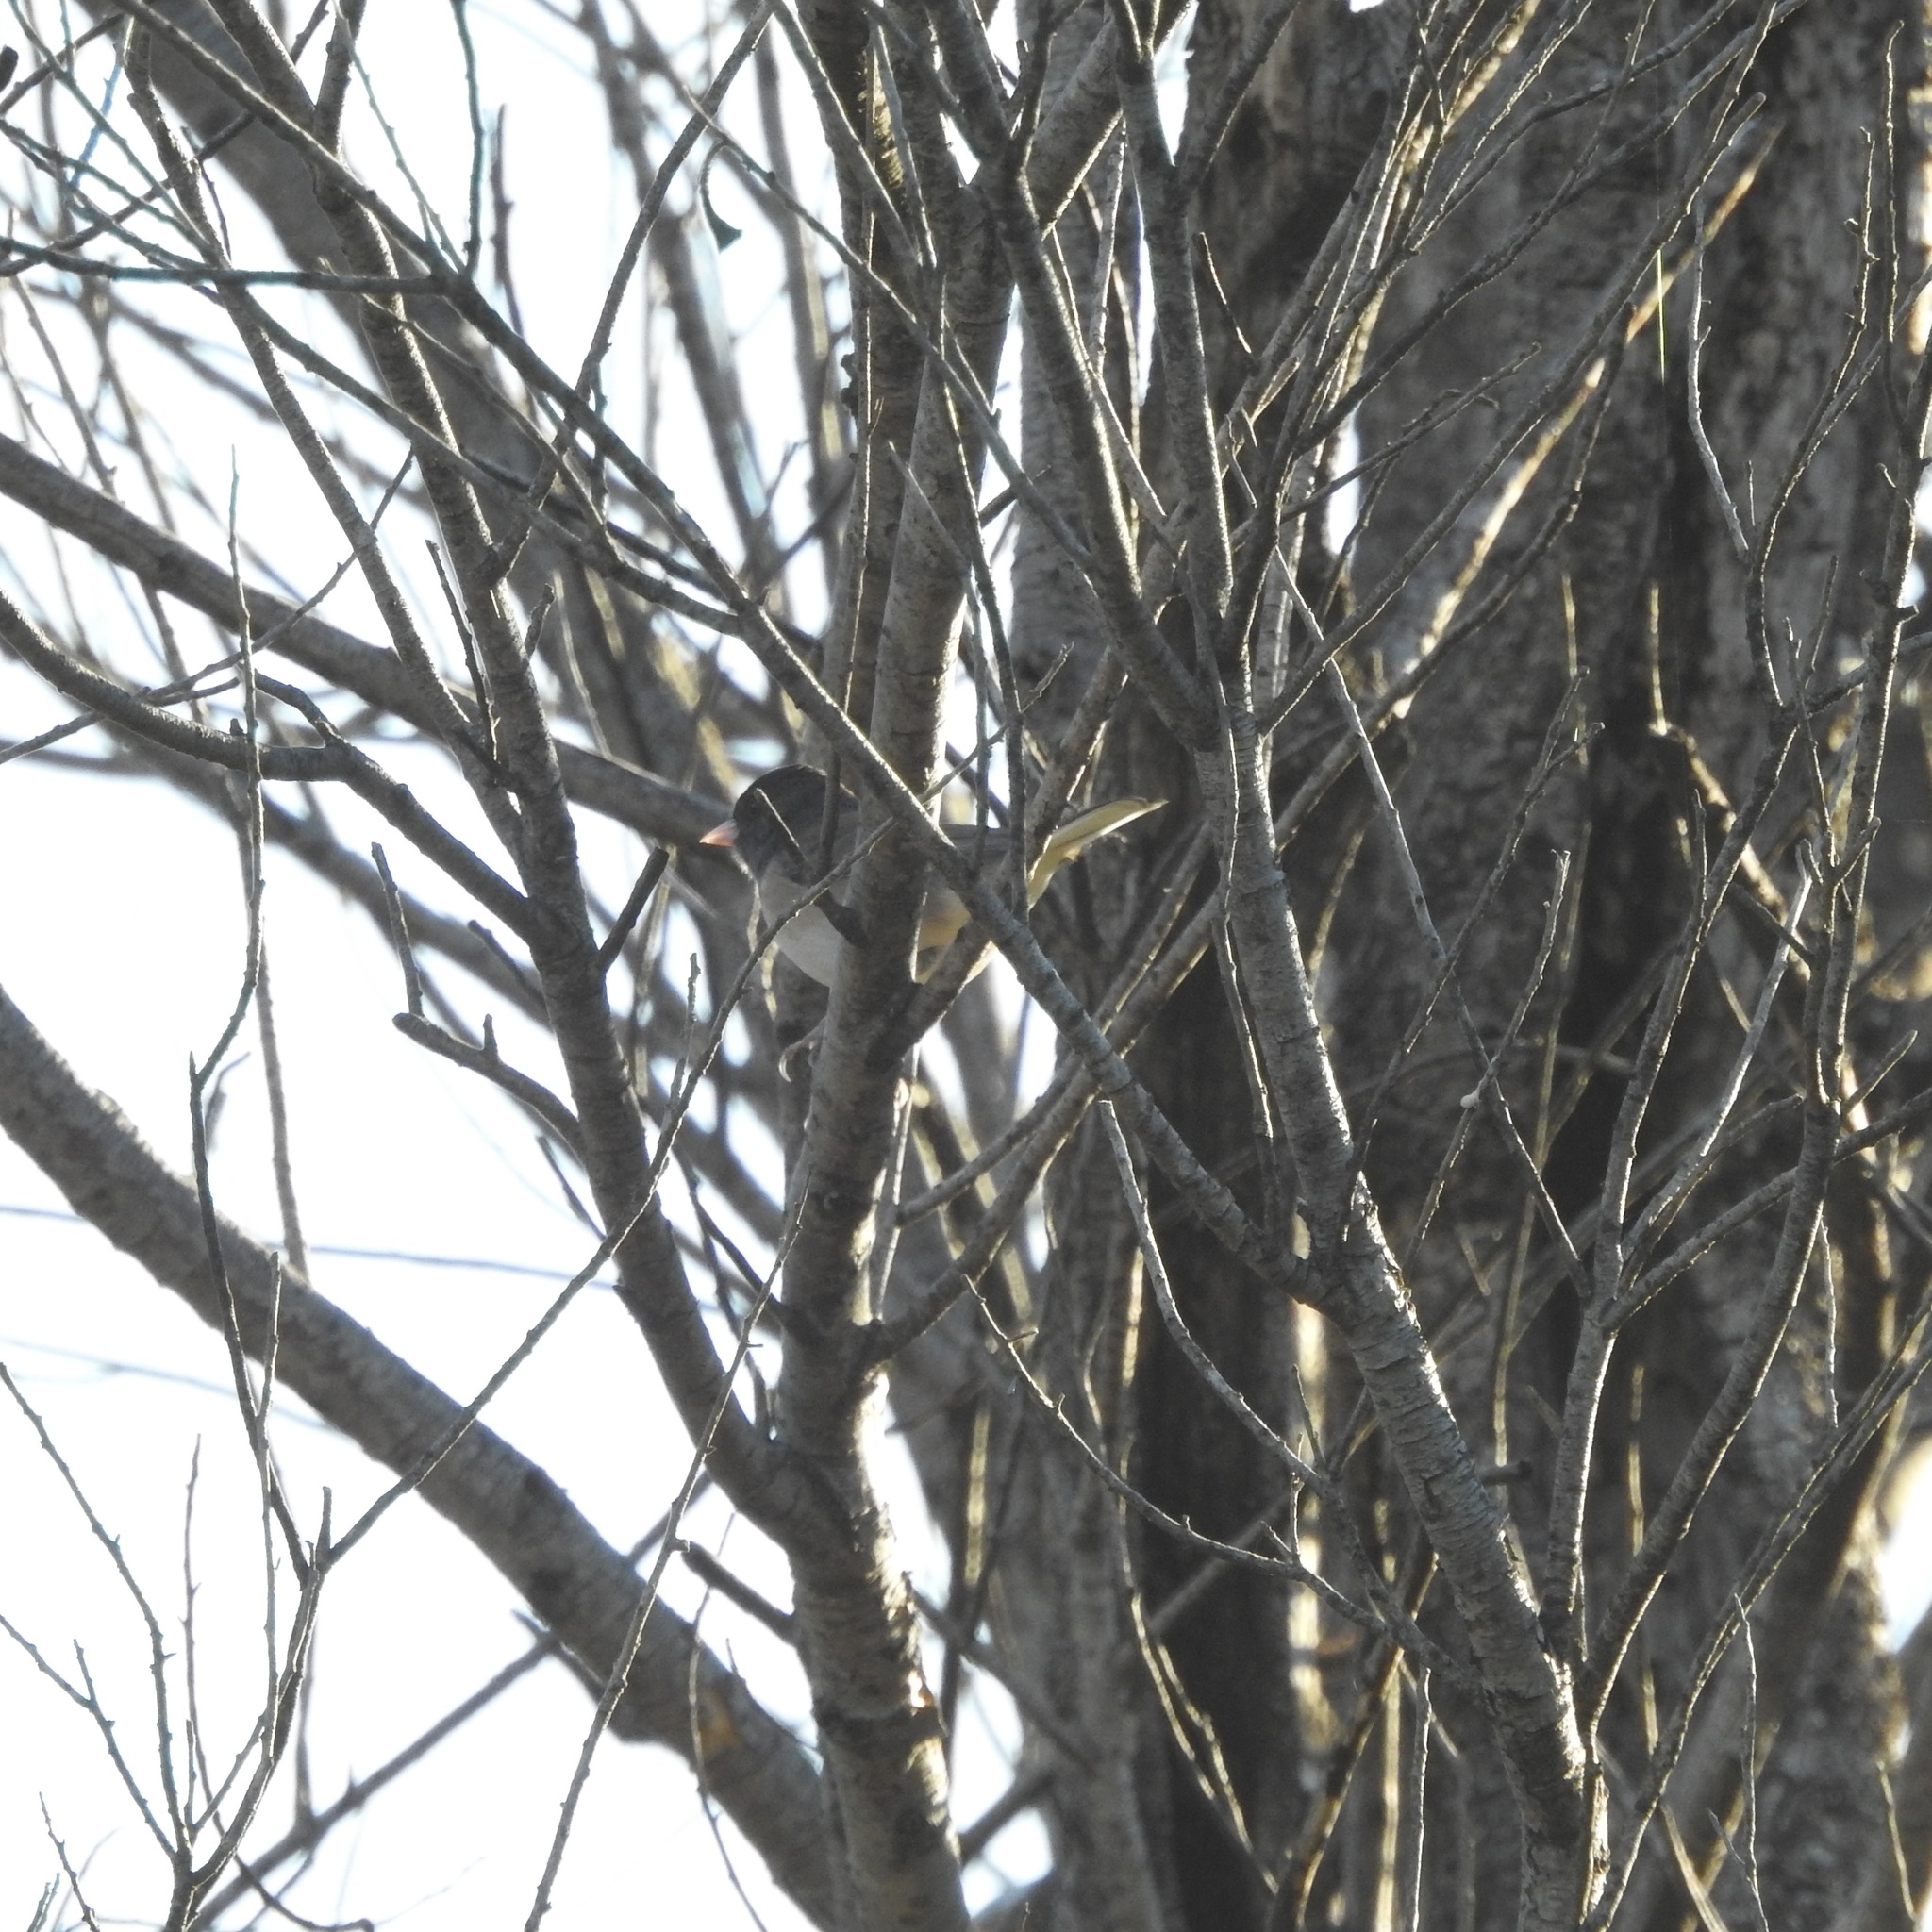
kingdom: Animalia
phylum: Chordata
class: Aves
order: Passeriformes
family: Passerellidae
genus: Junco
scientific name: Junco hyemalis
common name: Dark-eyed junco
